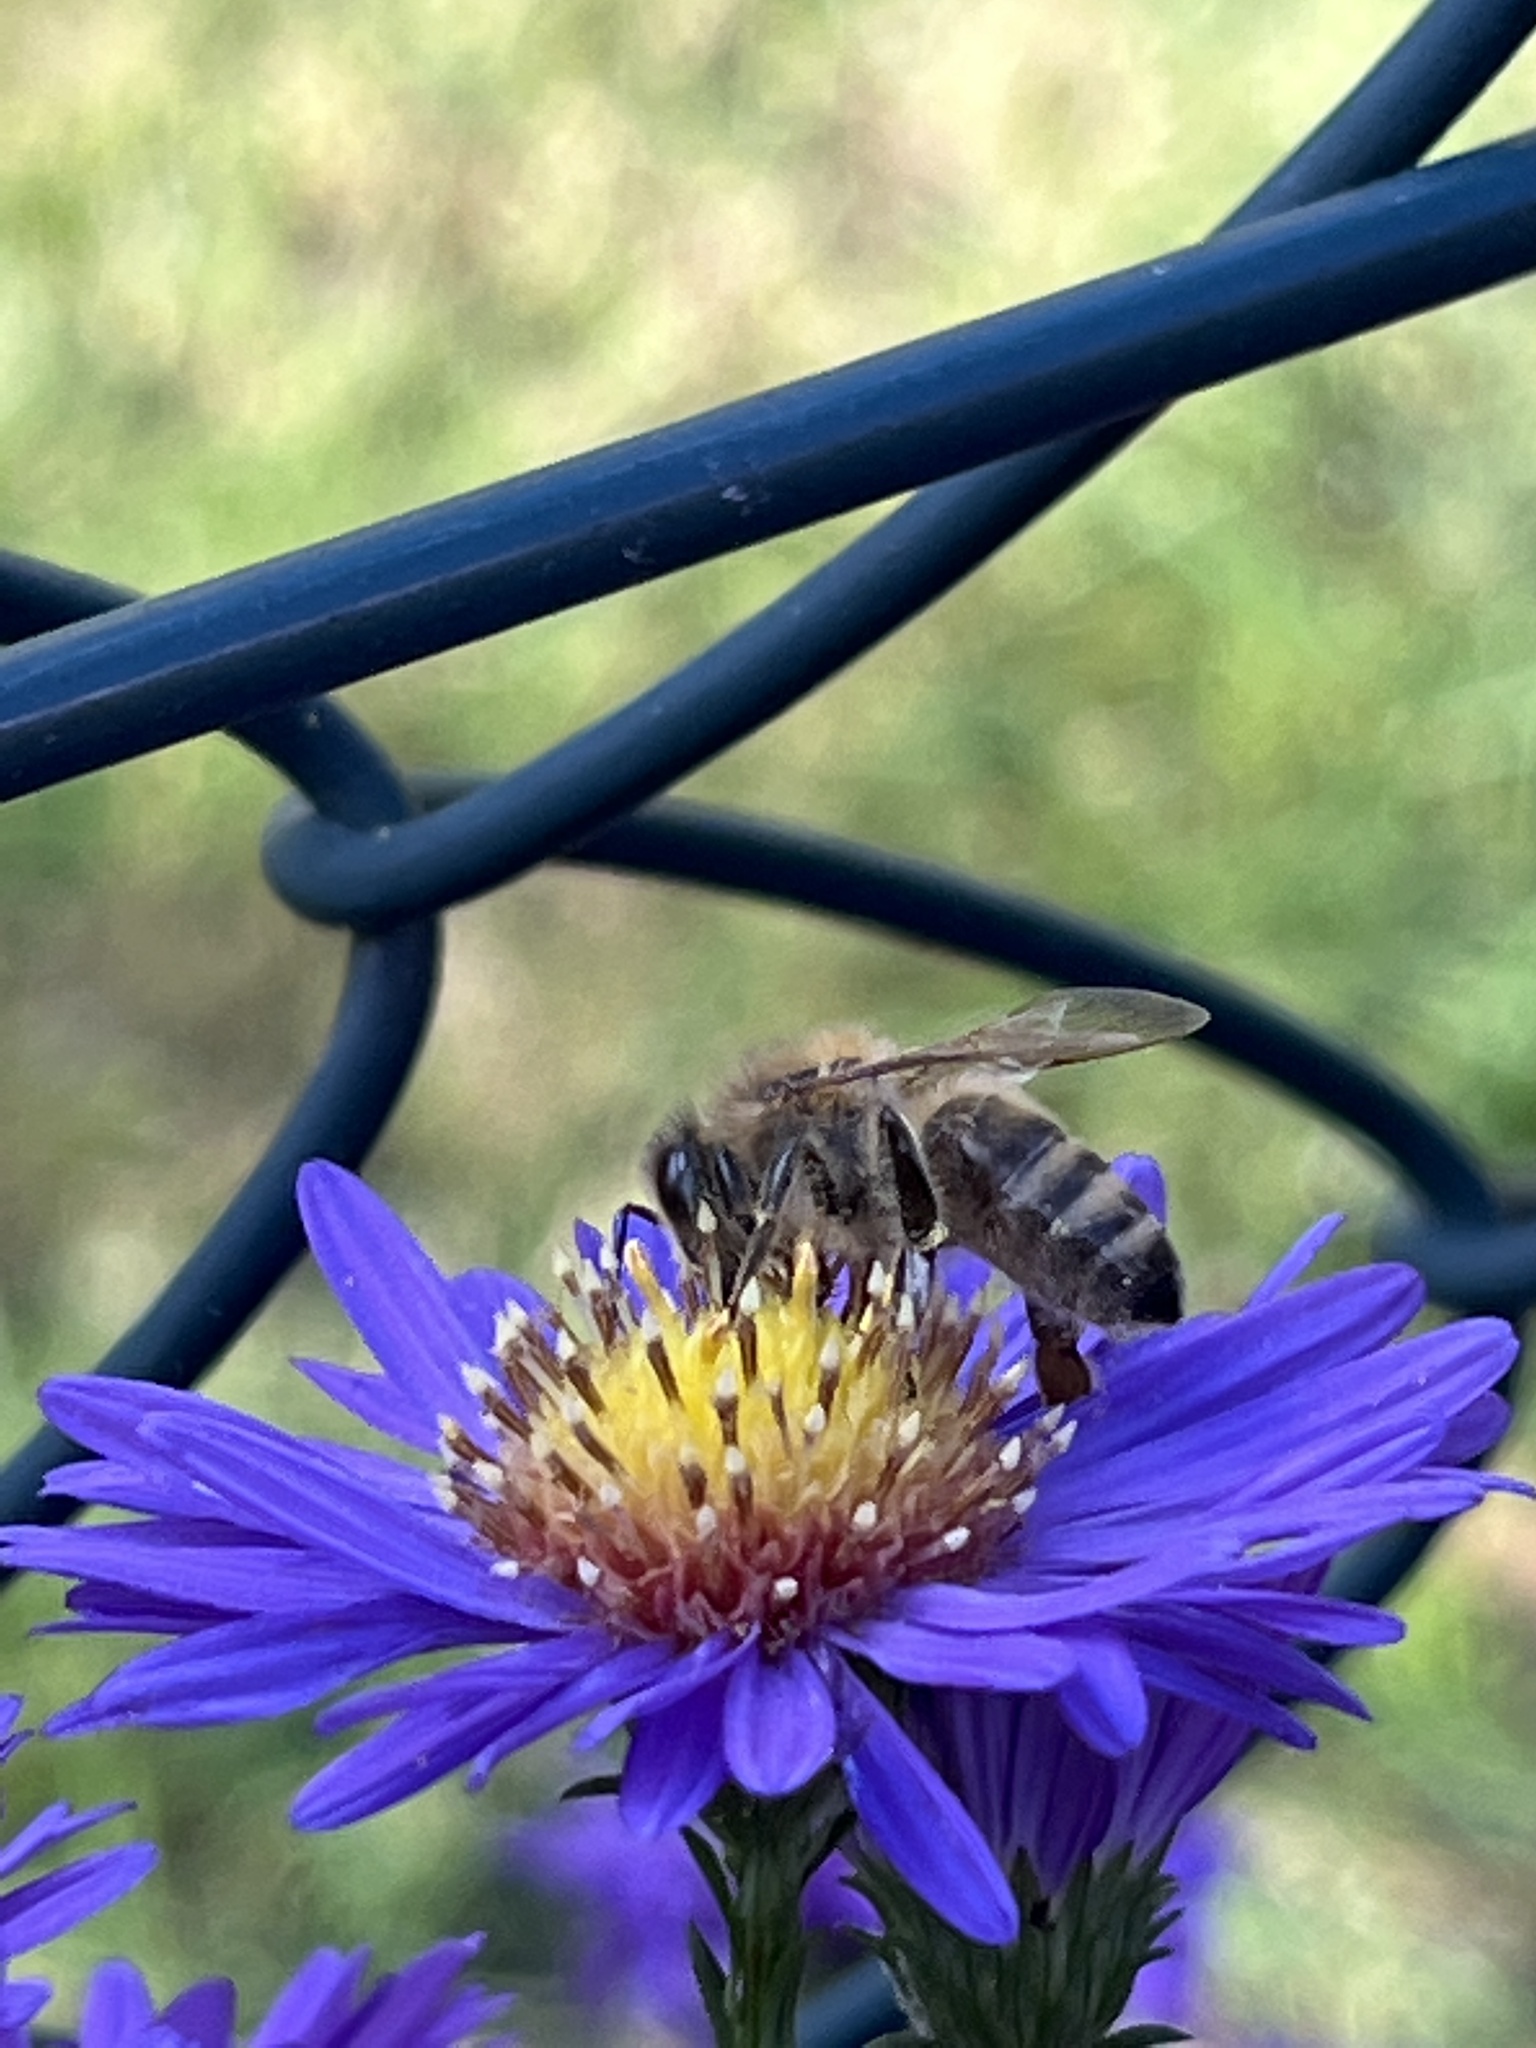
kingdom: Animalia
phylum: Arthropoda
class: Insecta
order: Hymenoptera
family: Apidae
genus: Apis
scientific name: Apis mellifera
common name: Honey bee
